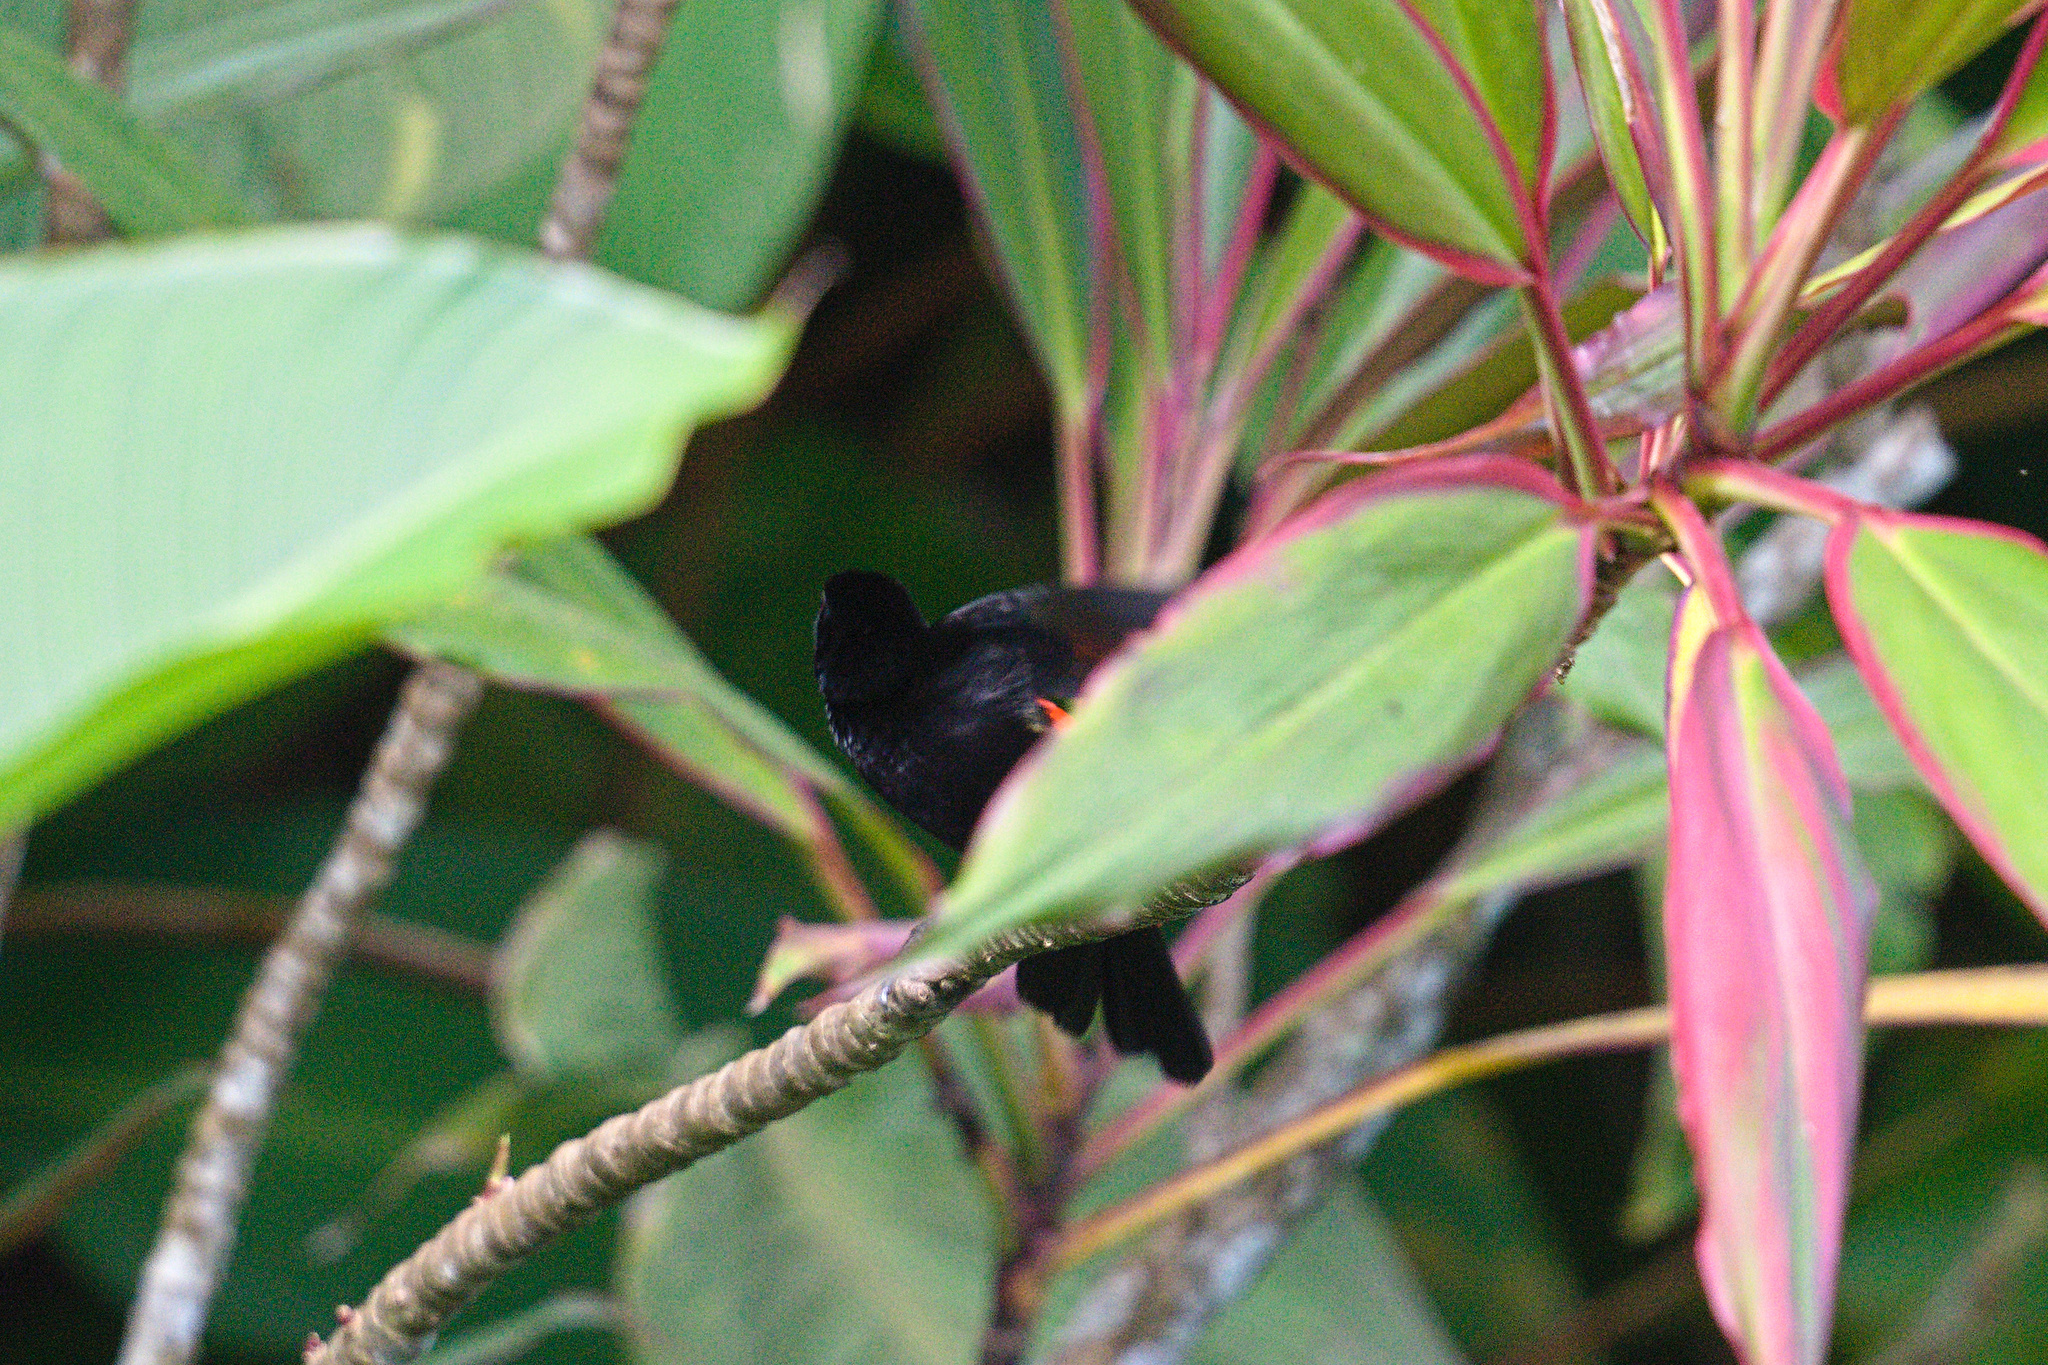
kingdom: Animalia
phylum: Chordata
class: Aves
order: Passeriformes
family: Thraupidae
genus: Ramphocelus
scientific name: Ramphocelus passerinii
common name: Passerini's tanager
